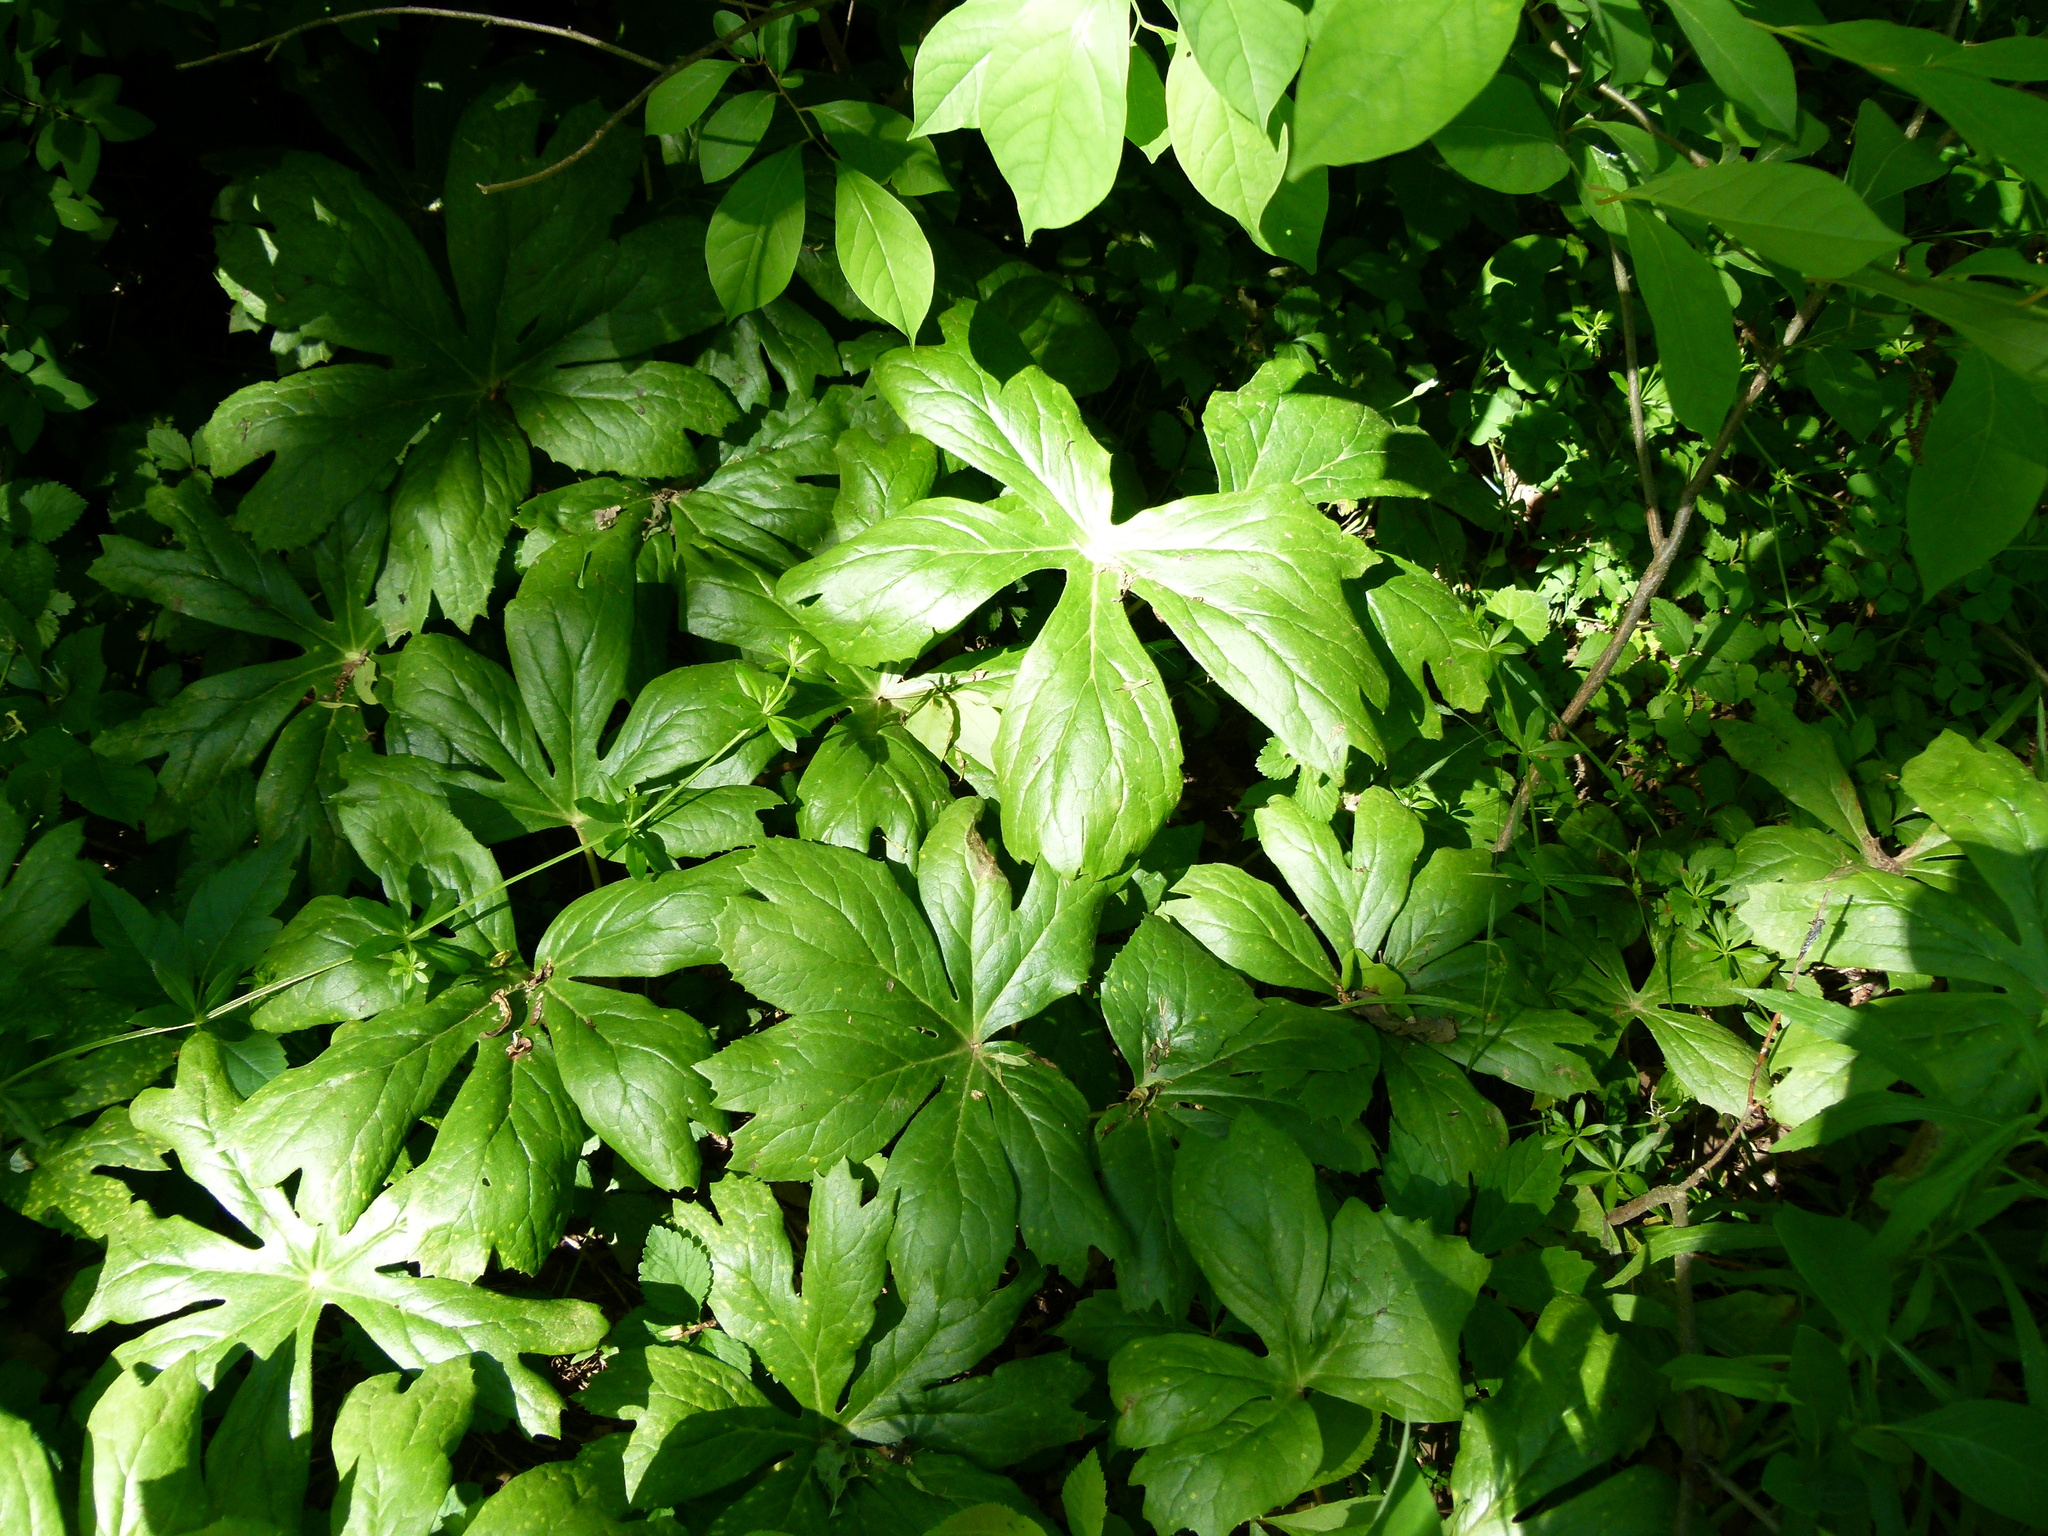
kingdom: Plantae
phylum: Tracheophyta
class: Magnoliopsida
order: Ranunculales
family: Berberidaceae
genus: Podophyllum
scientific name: Podophyllum peltatum
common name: Wild mandrake
